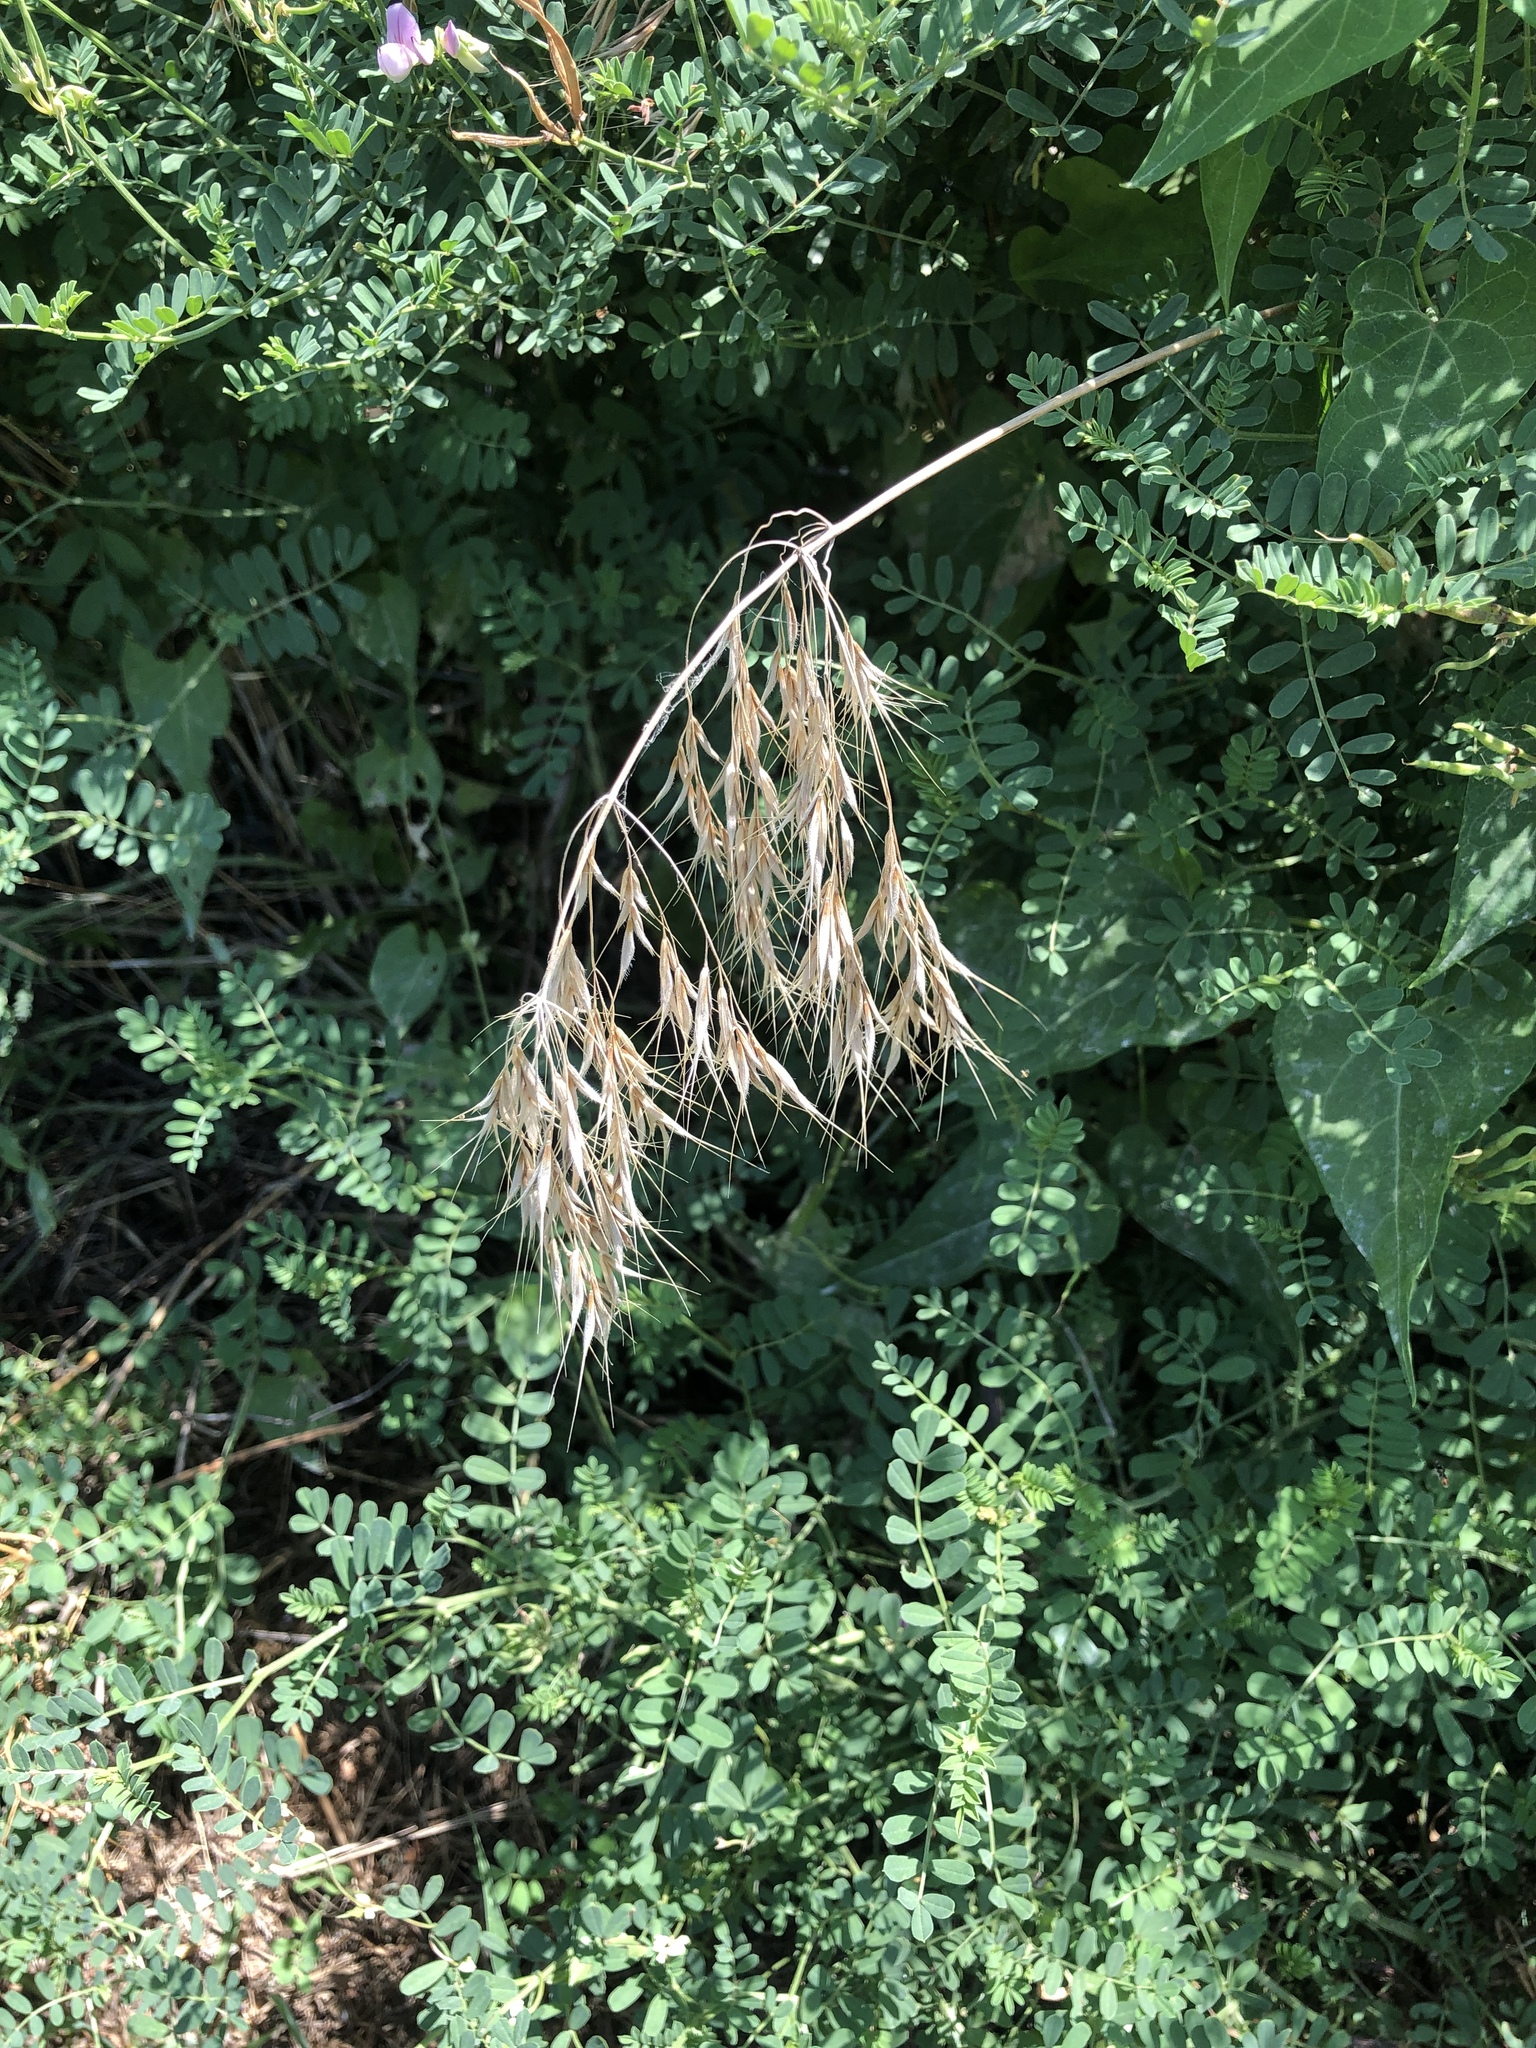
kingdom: Plantae
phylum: Tracheophyta
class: Liliopsida
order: Poales
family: Poaceae
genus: Bromus
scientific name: Bromus tectorum
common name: Cheatgrass
